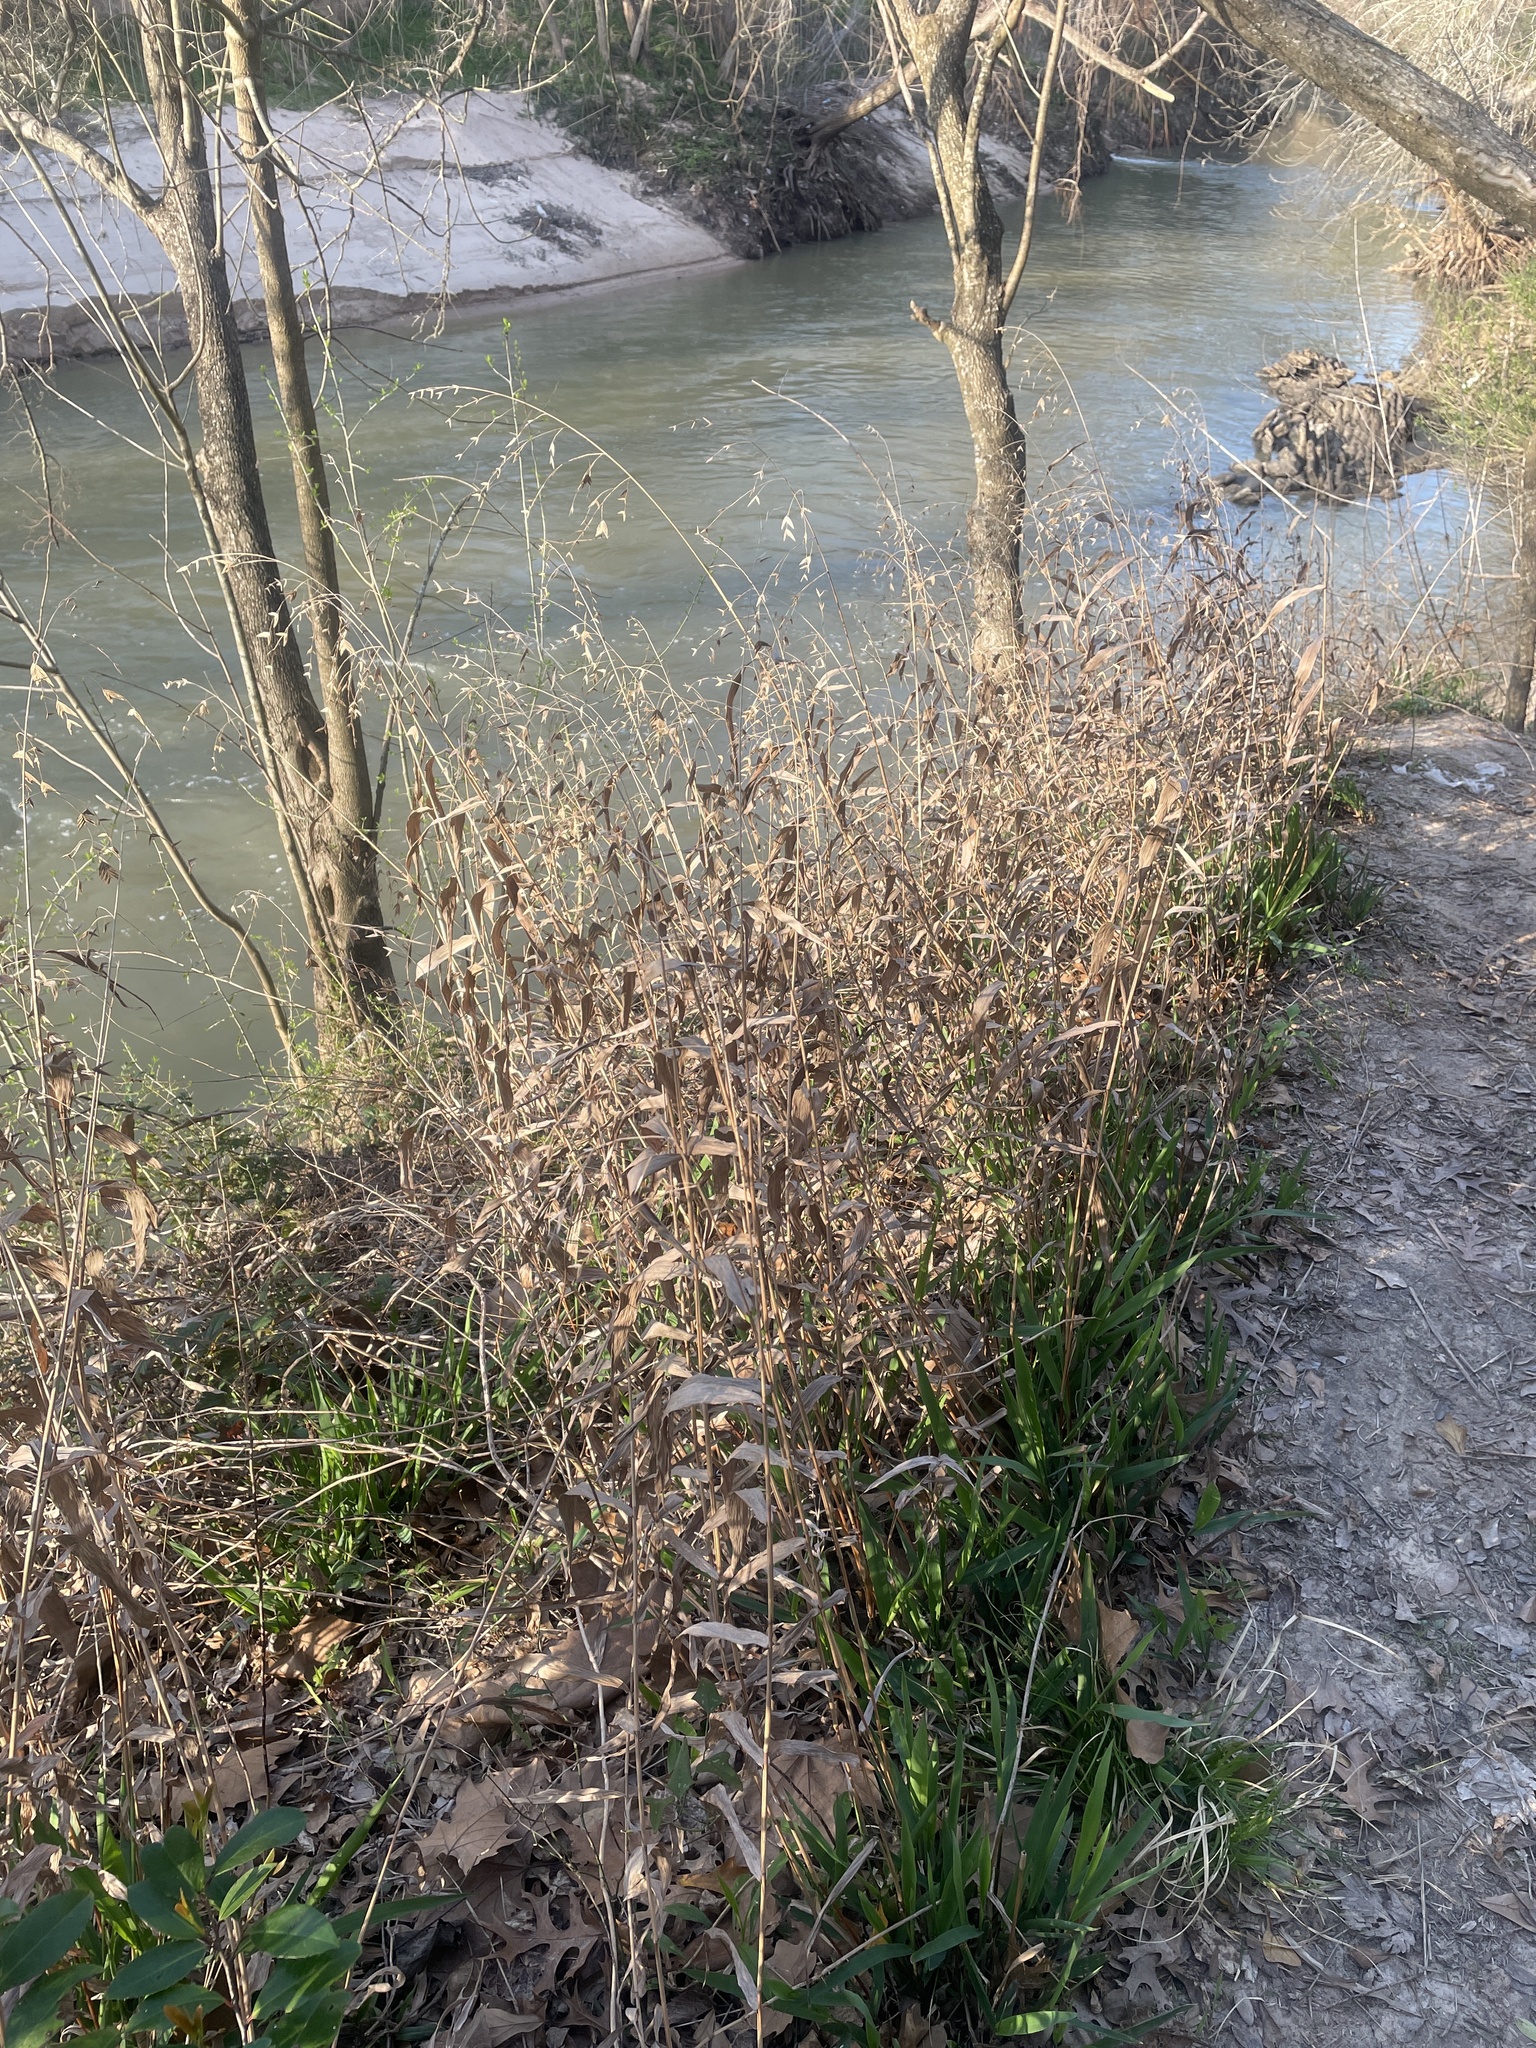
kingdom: Plantae
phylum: Tracheophyta
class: Liliopsida
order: Poales
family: Poaceae
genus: Chasmanthium
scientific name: Chasmanthium latifolium
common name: Broad-leaved chasmanthium
